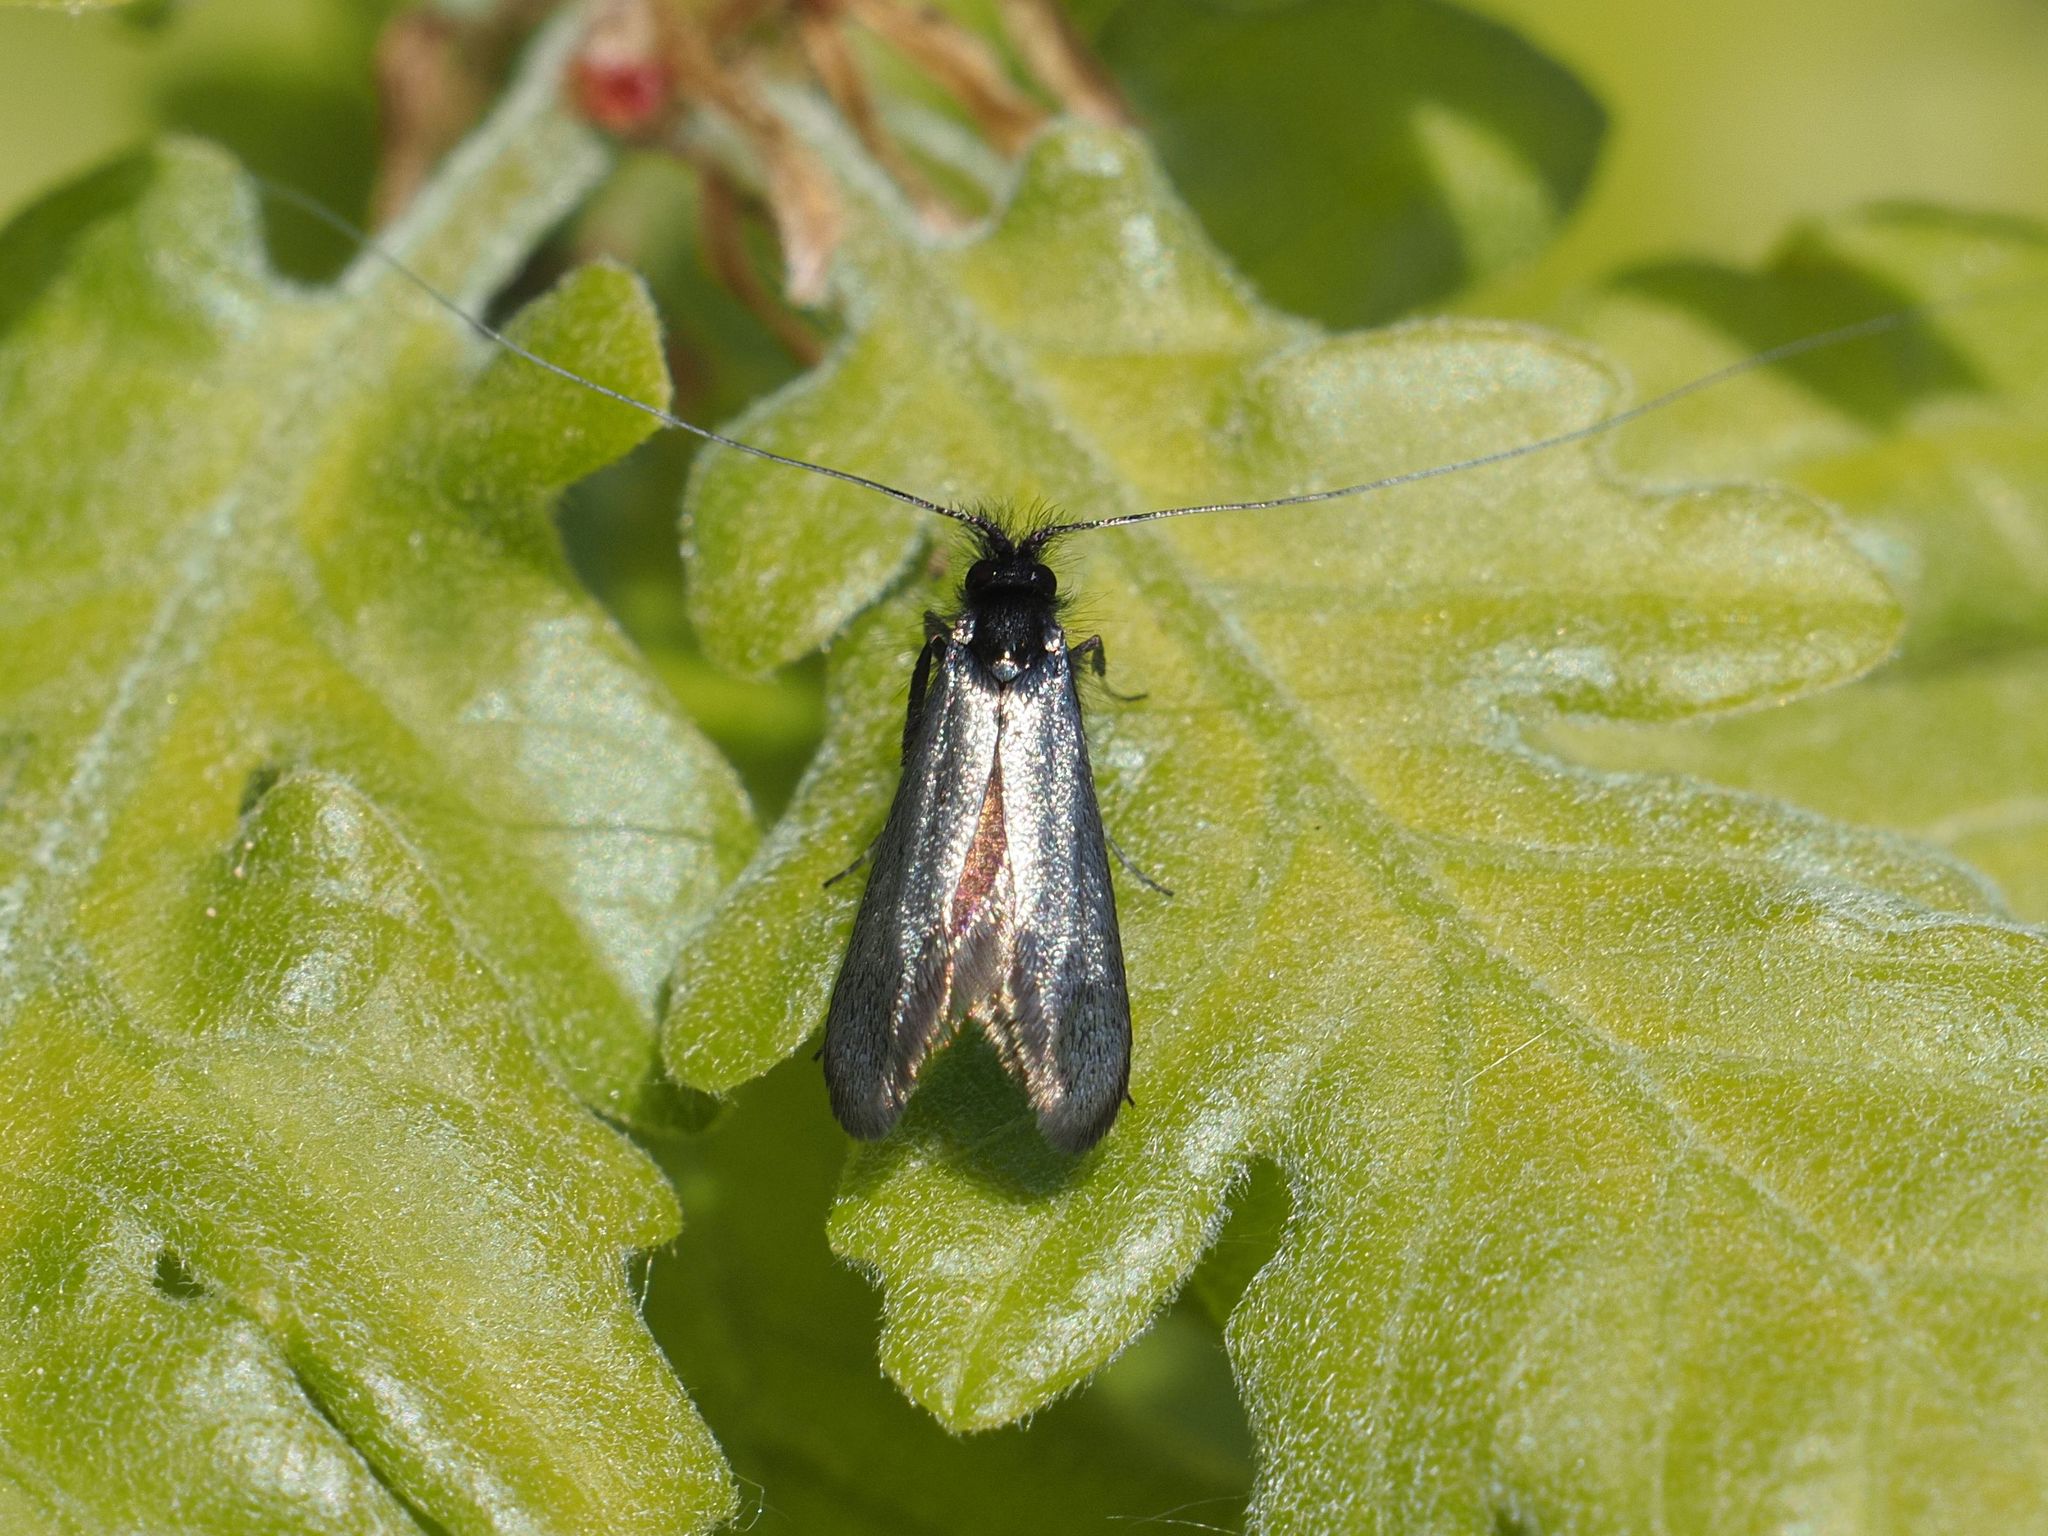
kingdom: Animalia
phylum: Arthropoda
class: Insecta
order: Lepidoptera
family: Adelidae
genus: Adela
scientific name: Adela viridella
